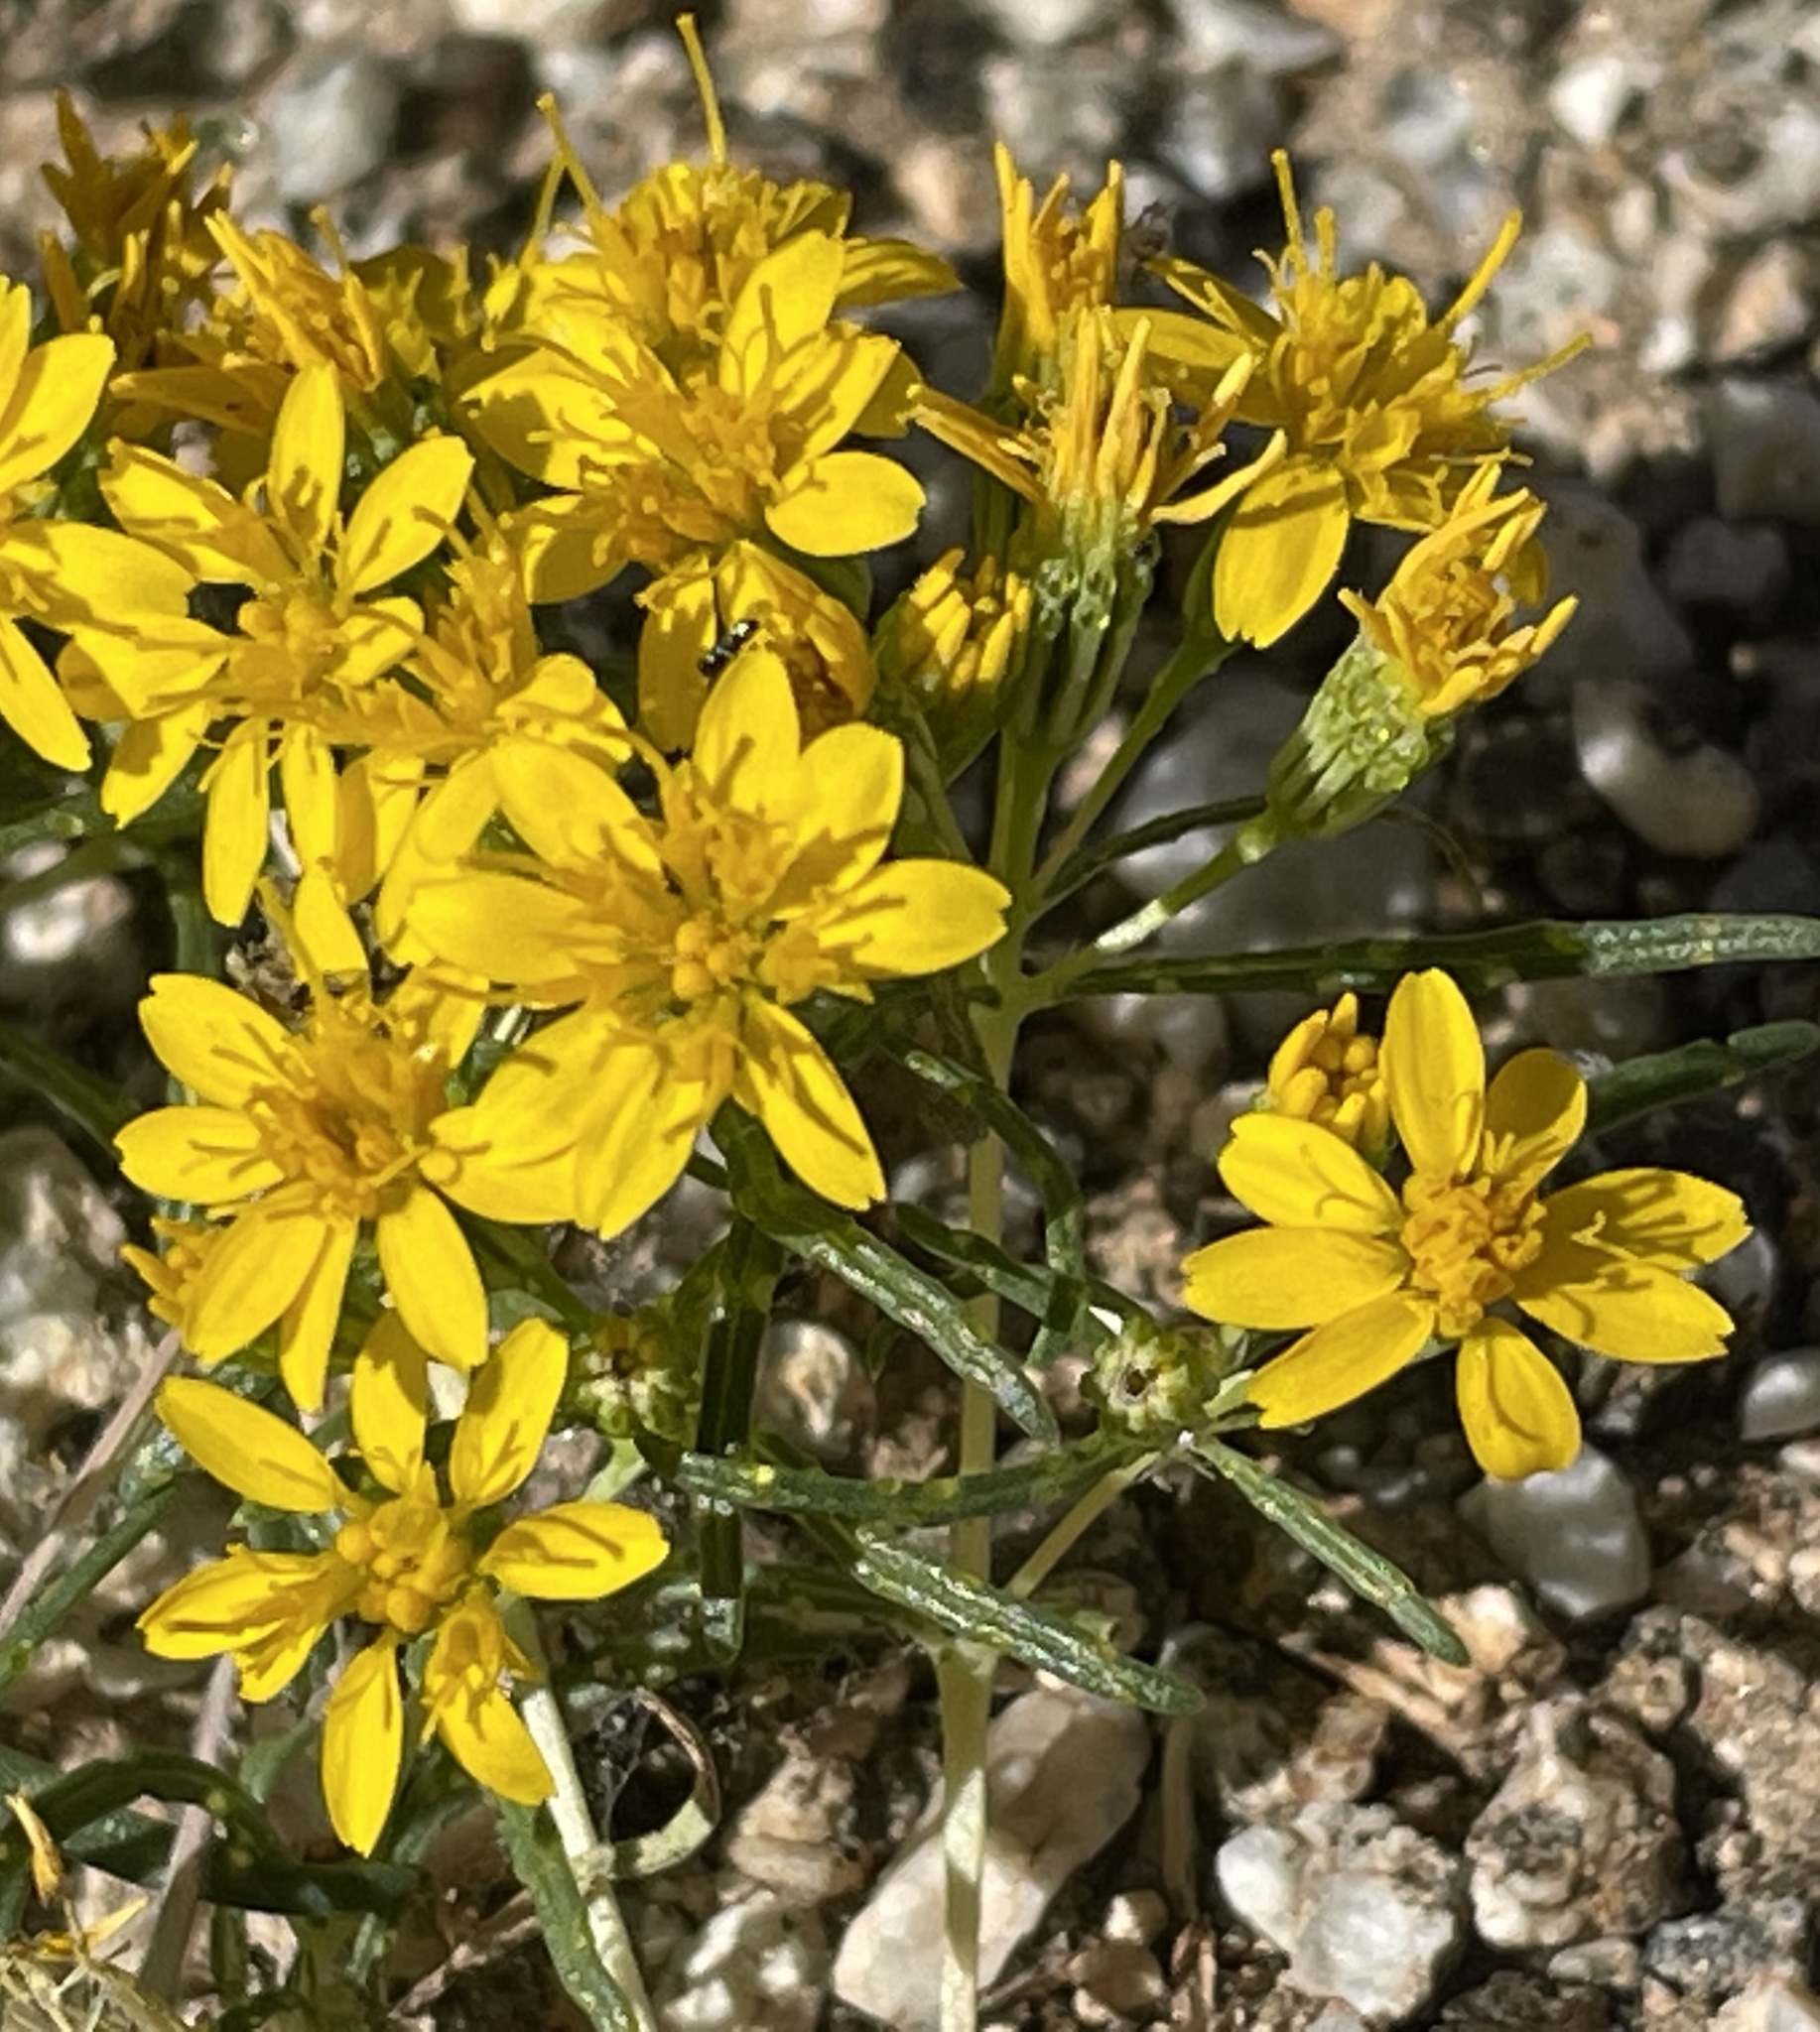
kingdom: Plantae
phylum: Tracheophyta
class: Magnoliopsida
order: Asterales
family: Asteraceae
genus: Pectis
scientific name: Pectis papposa
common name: Many-bristle chinchweed
